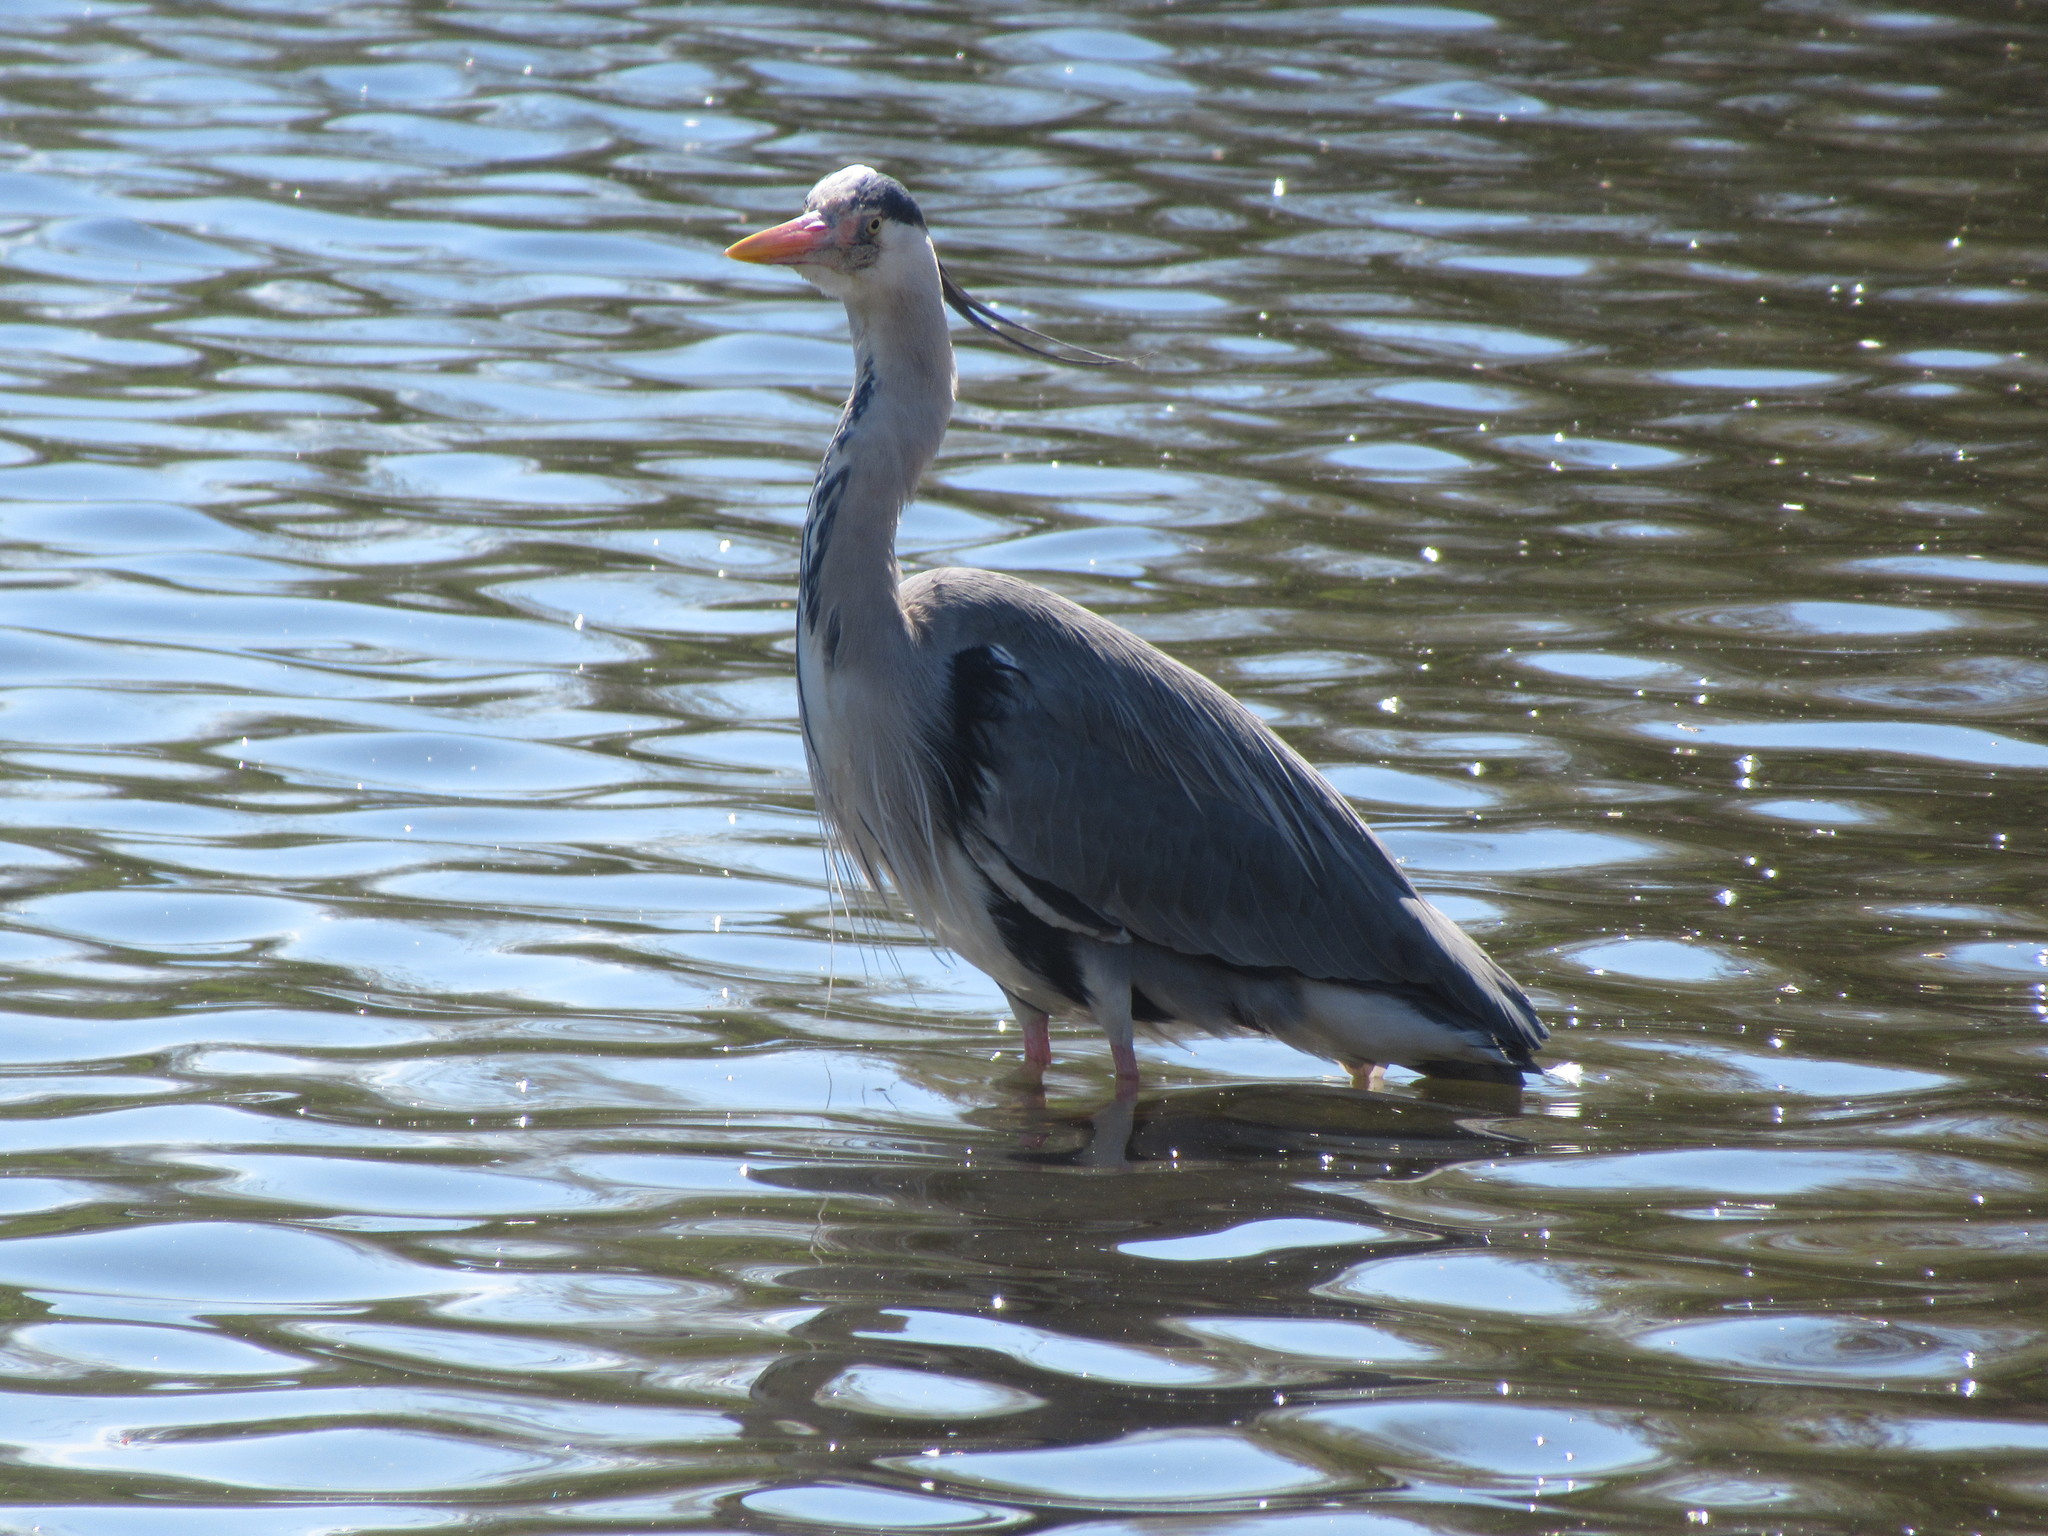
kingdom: Animalia
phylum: Chordata
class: Aves
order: Pelecaniformes
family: Ardeidae
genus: Ardea
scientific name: Ardea cinerea
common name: Grey heron
